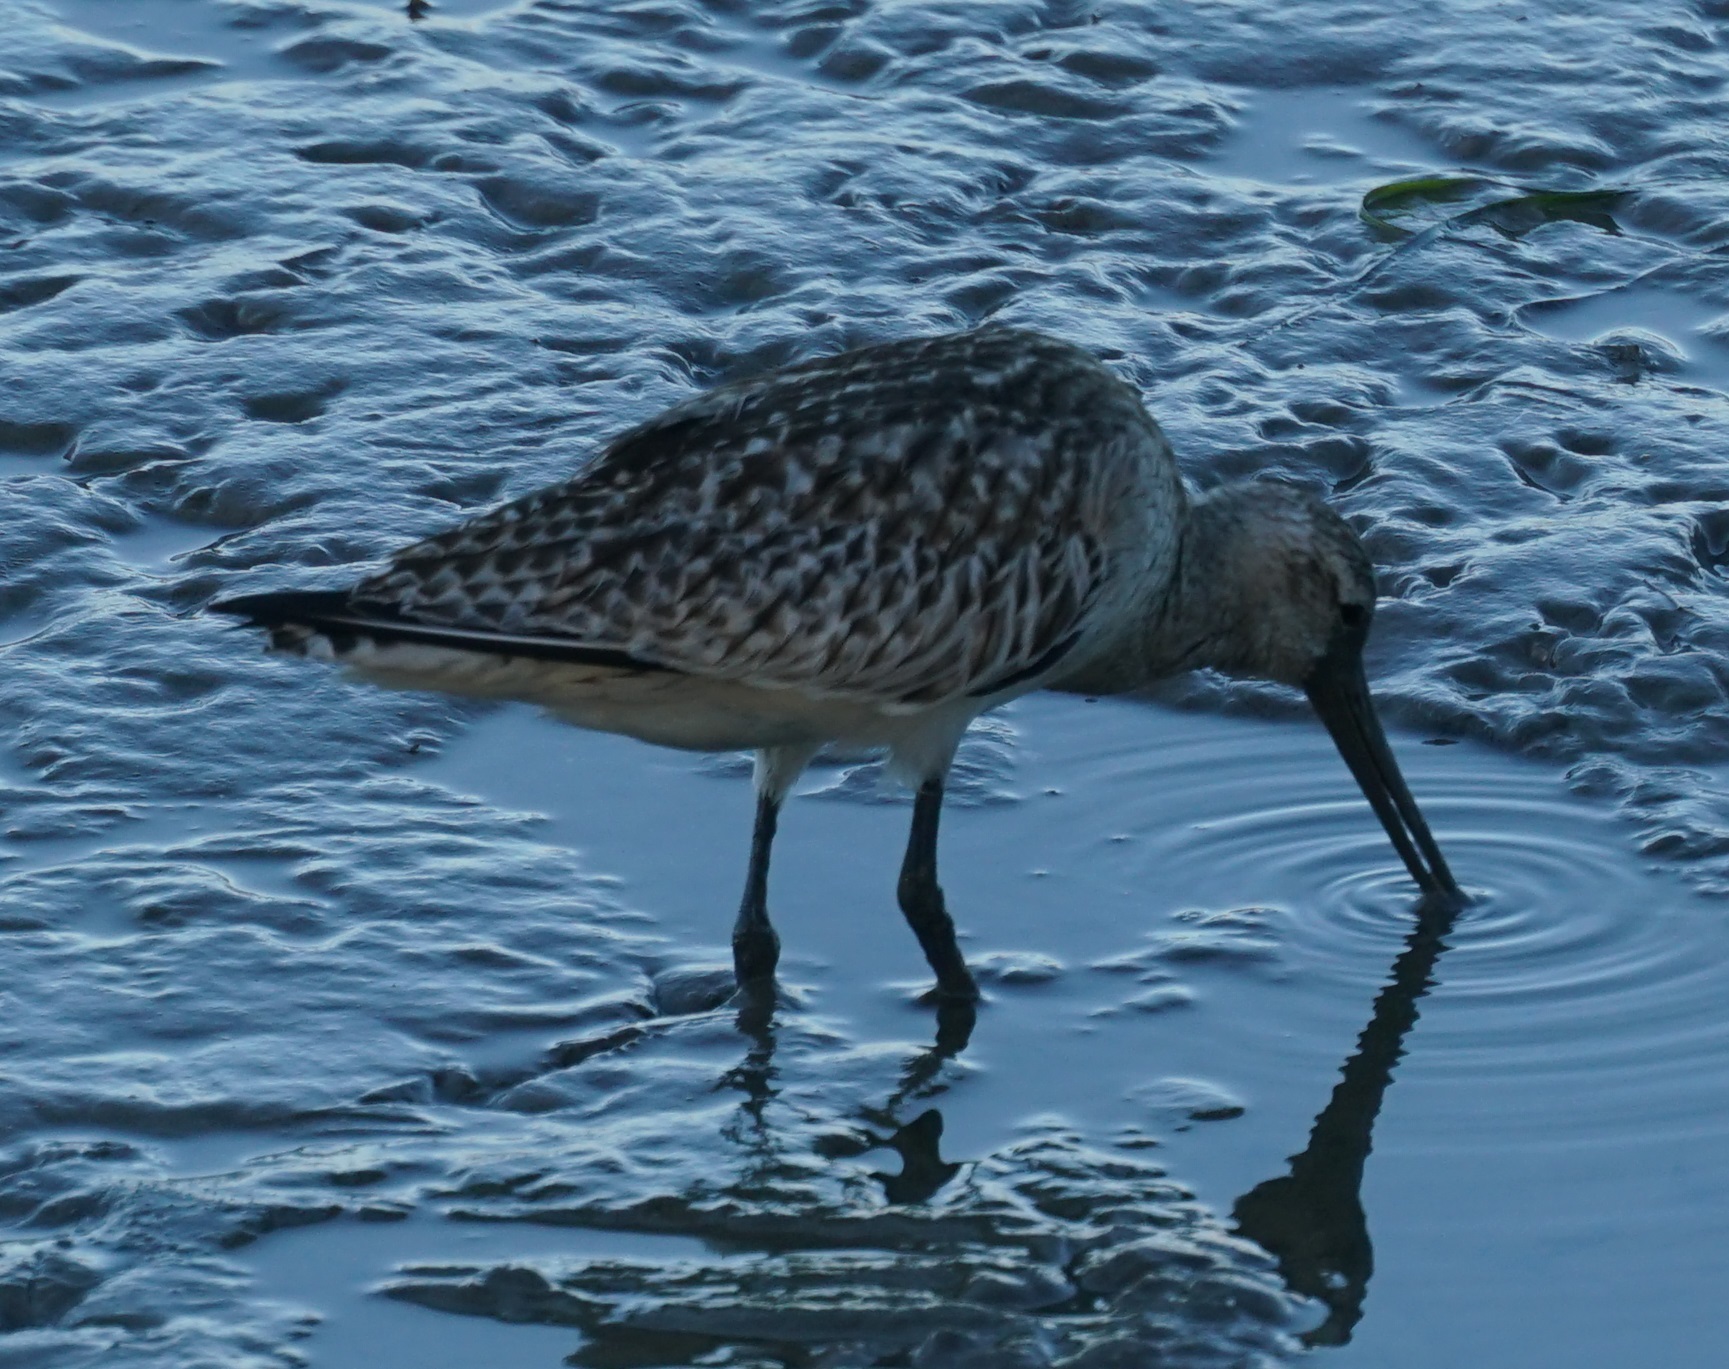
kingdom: Animalia
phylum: Chordata
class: Aves
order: Charadriiformes
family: Scolopacidae
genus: Limosa
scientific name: Limosa lapponica
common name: Bar-tailed godwit
